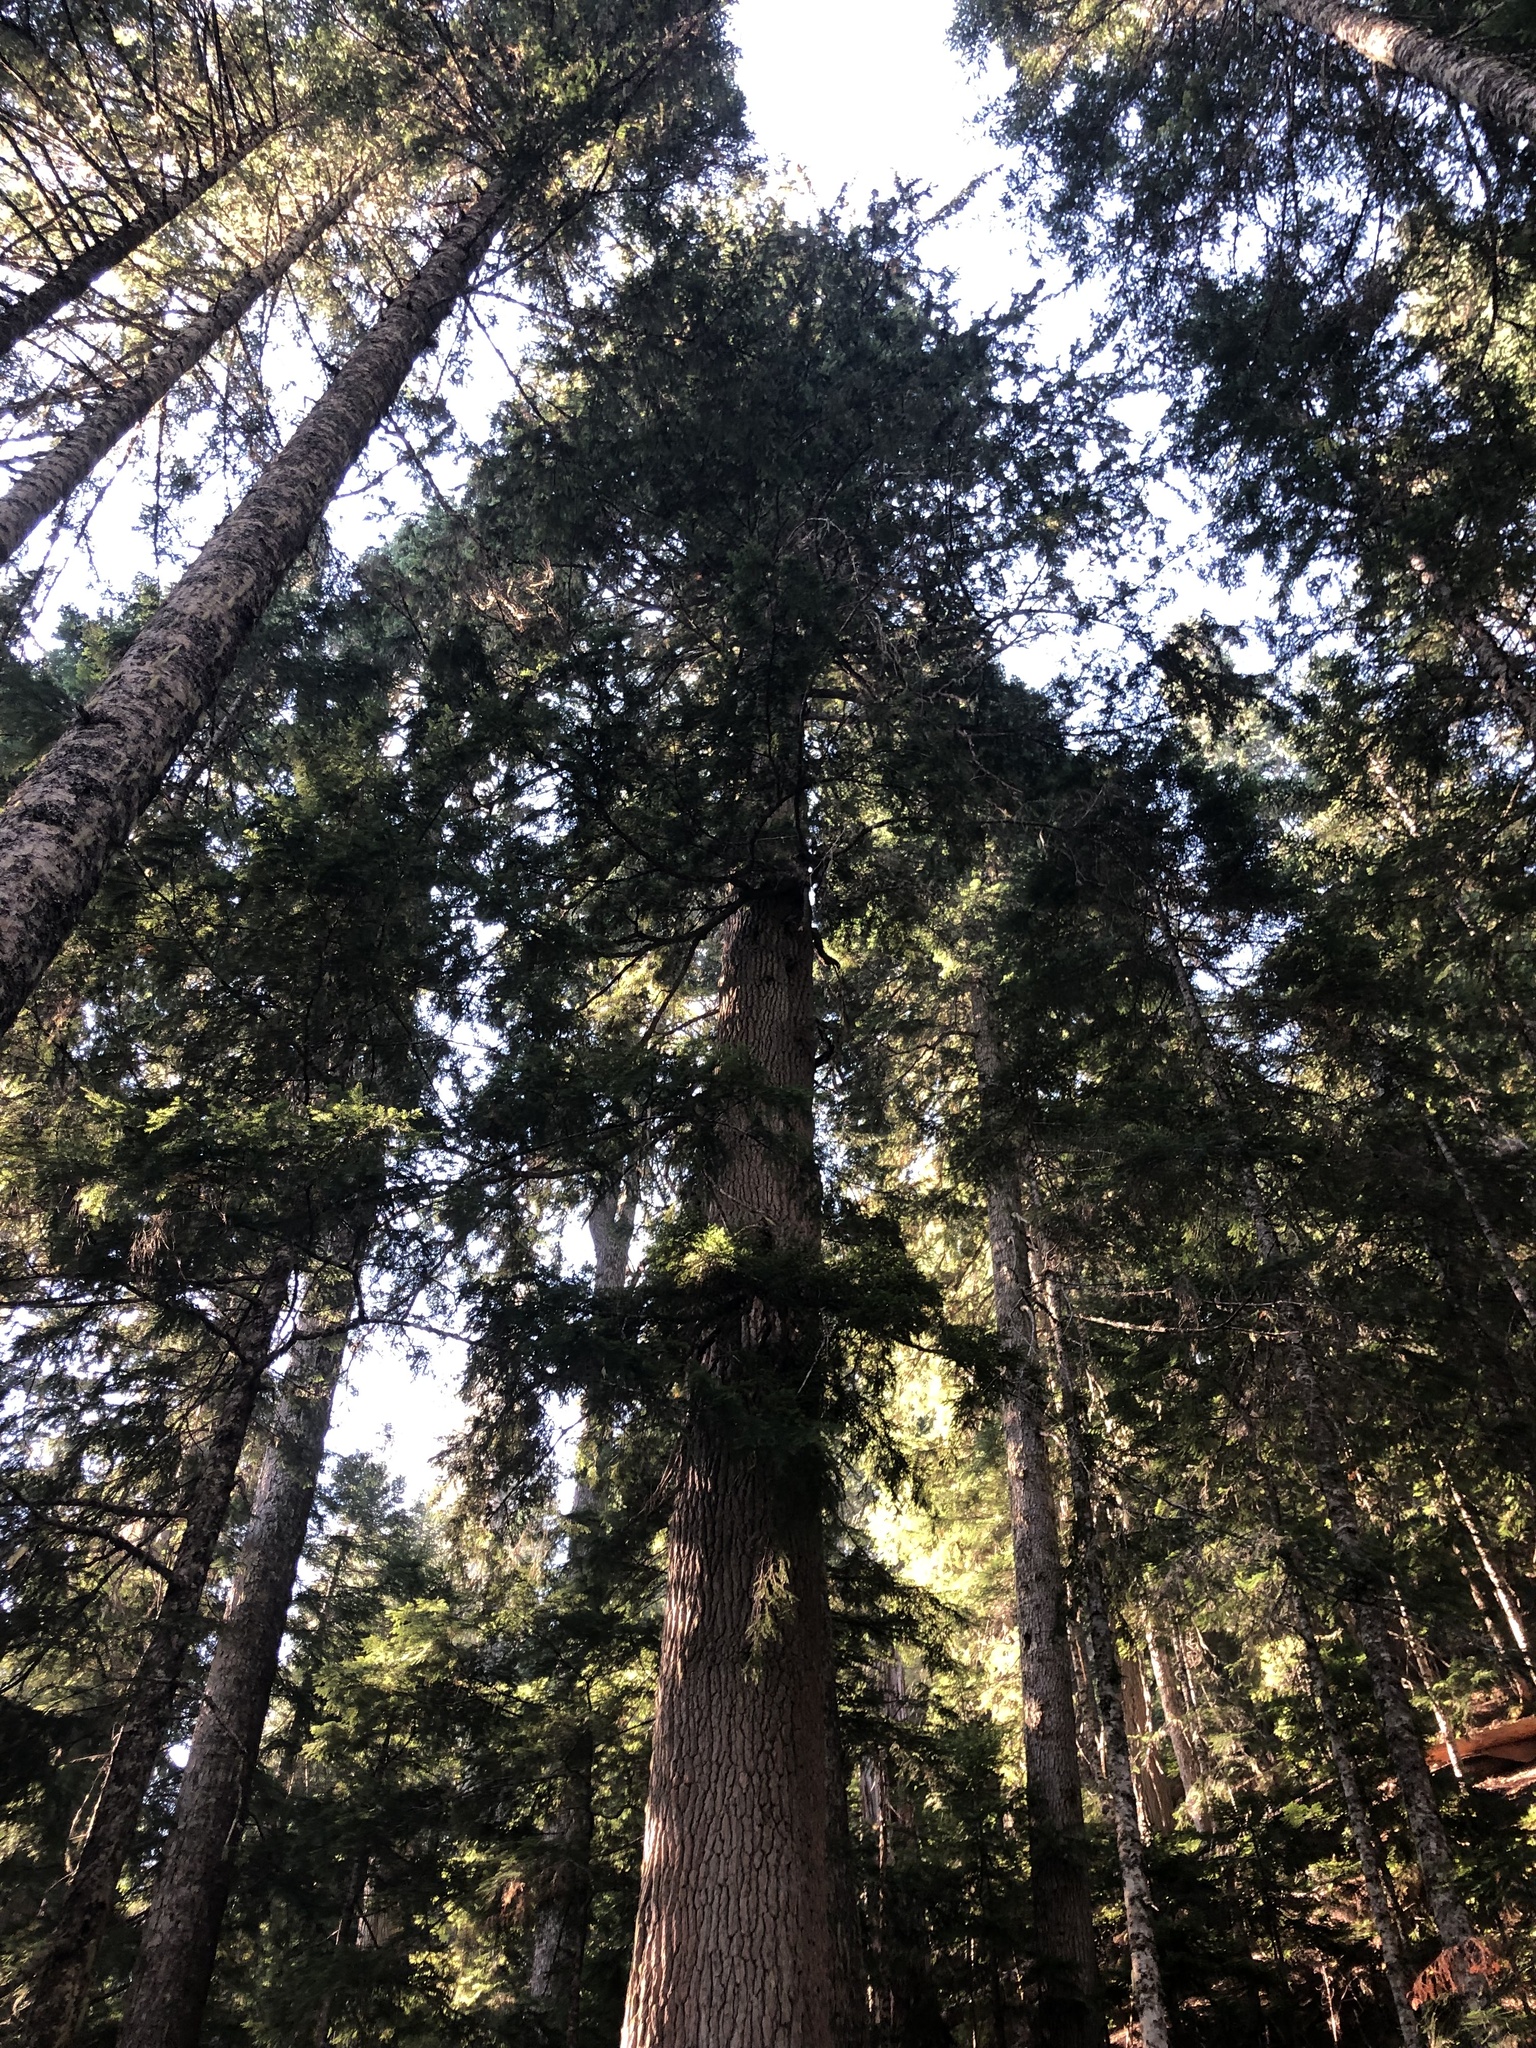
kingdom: Plantae
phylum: Tracheophyta
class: Pinopsida
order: Pinales
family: Pinaceae
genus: Tsuga
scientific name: Tsuga heterophylla
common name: Western hemlock
